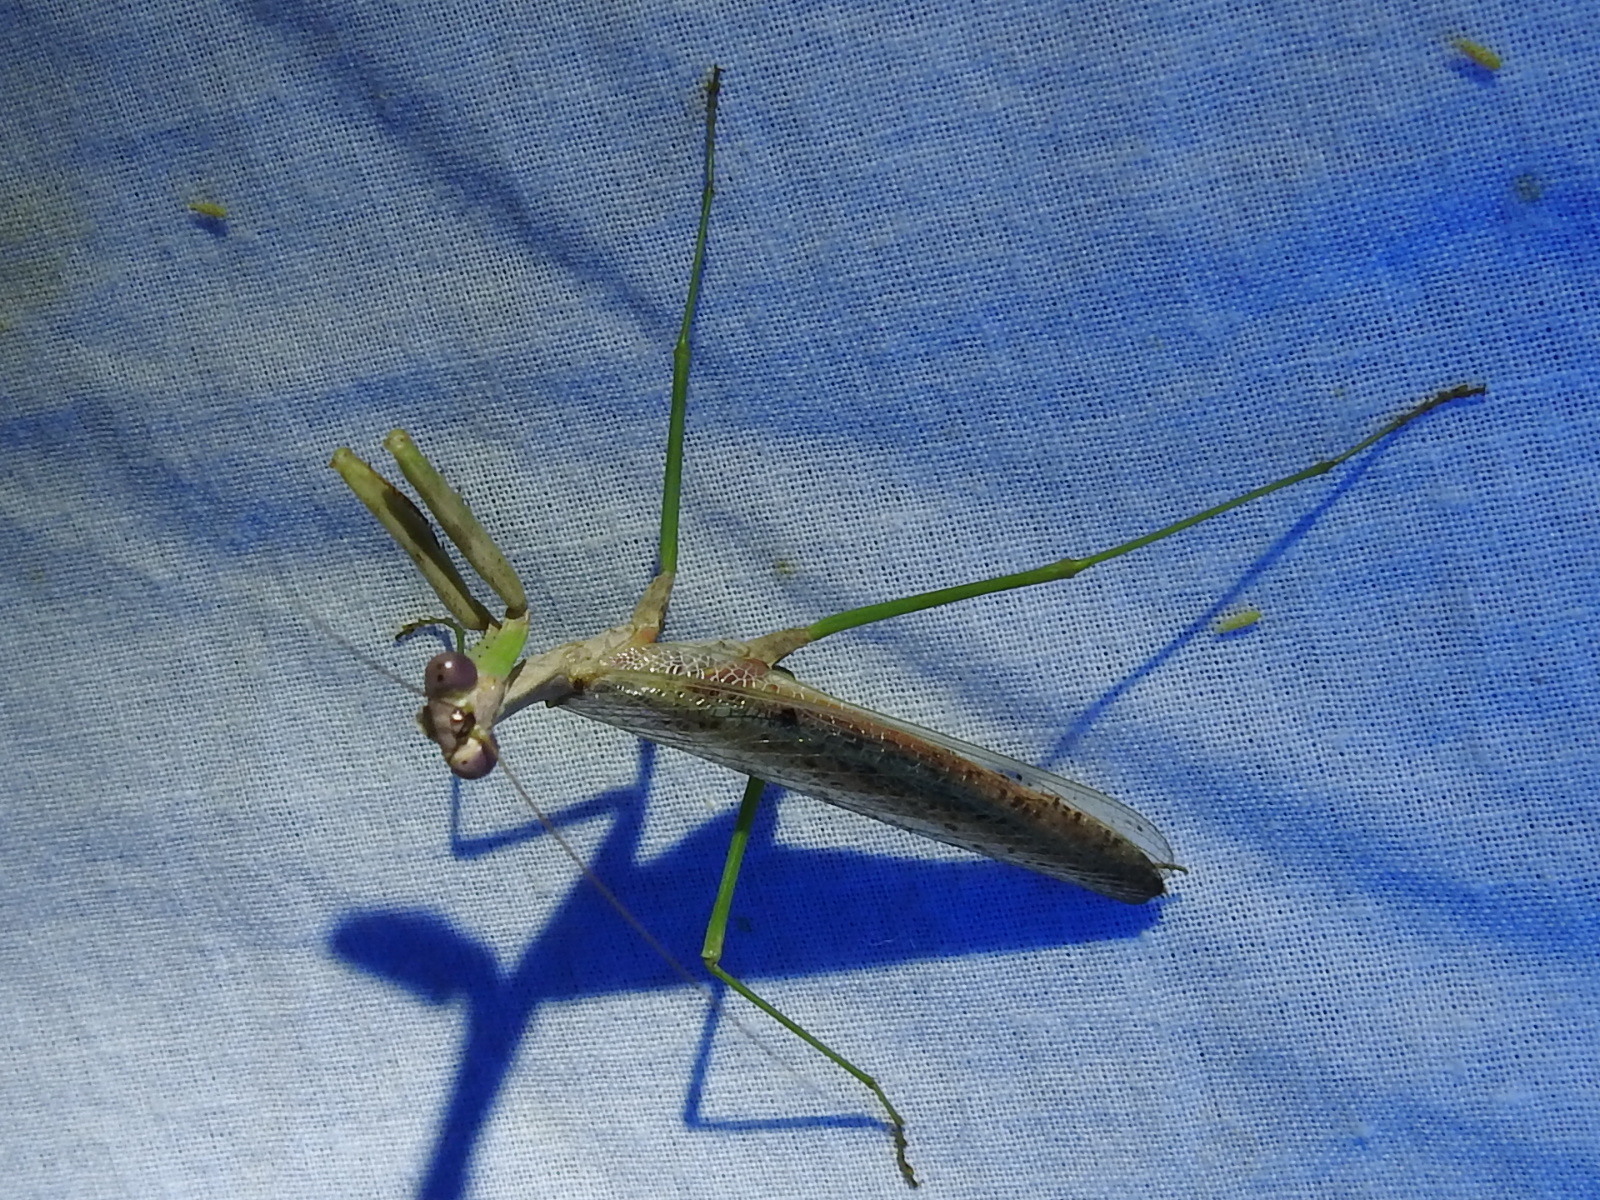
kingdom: Animalia
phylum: Arthropoda
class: Insecta
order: Mantodea
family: Mantidae
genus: Stagmomantis
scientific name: Stagmomantis carolina
